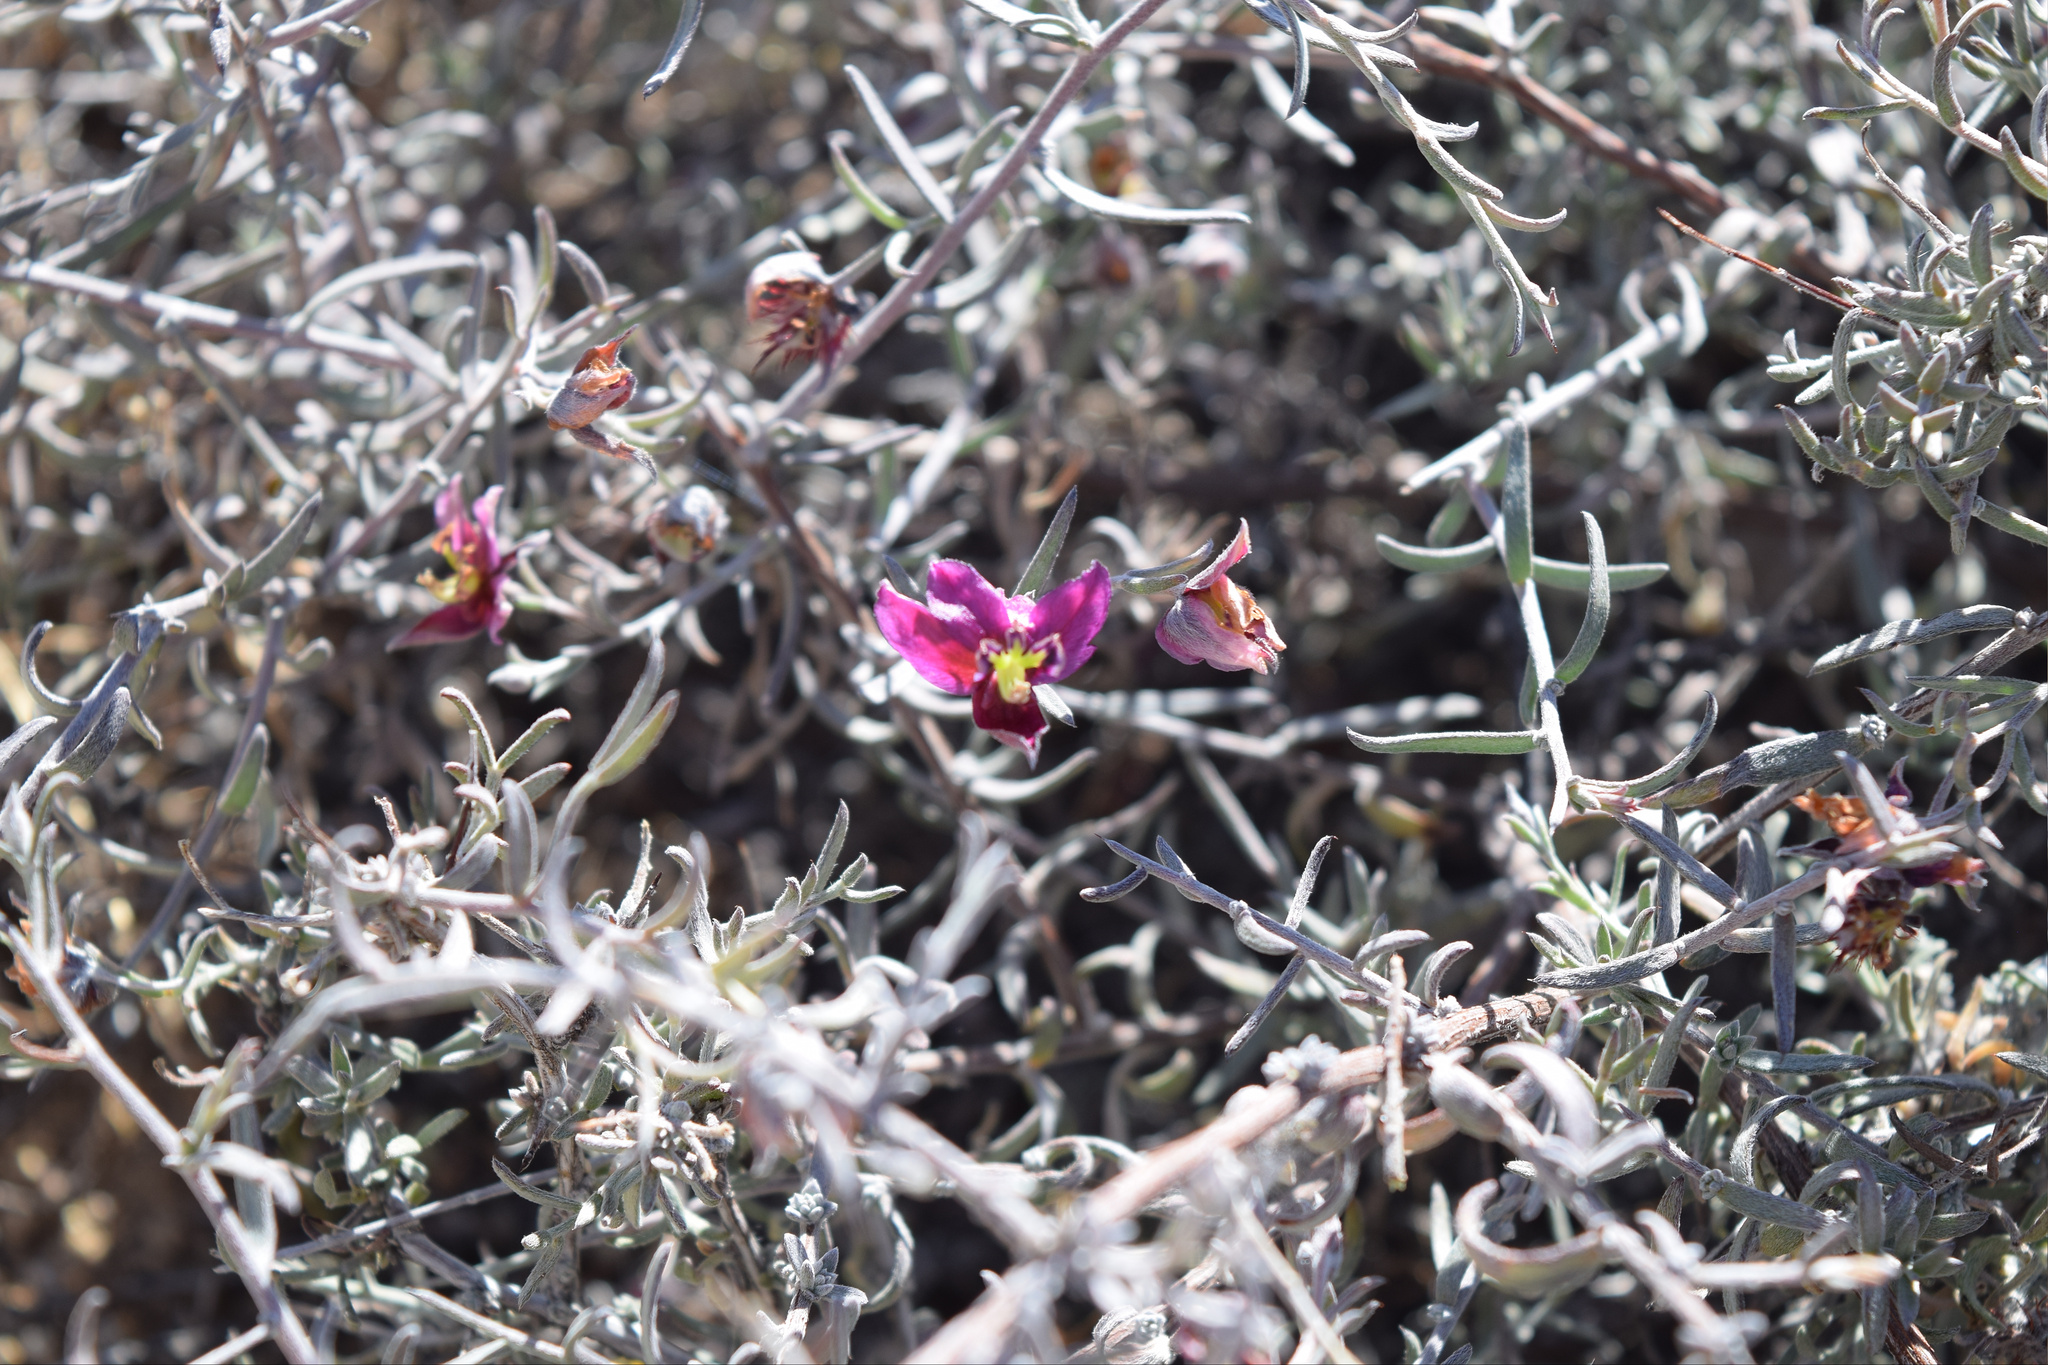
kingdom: Plantae
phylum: Tracheophyta
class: Magnoliopsida
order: Zygophyllales
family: Krameriaceae
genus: Krameria
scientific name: Krameria erecta
